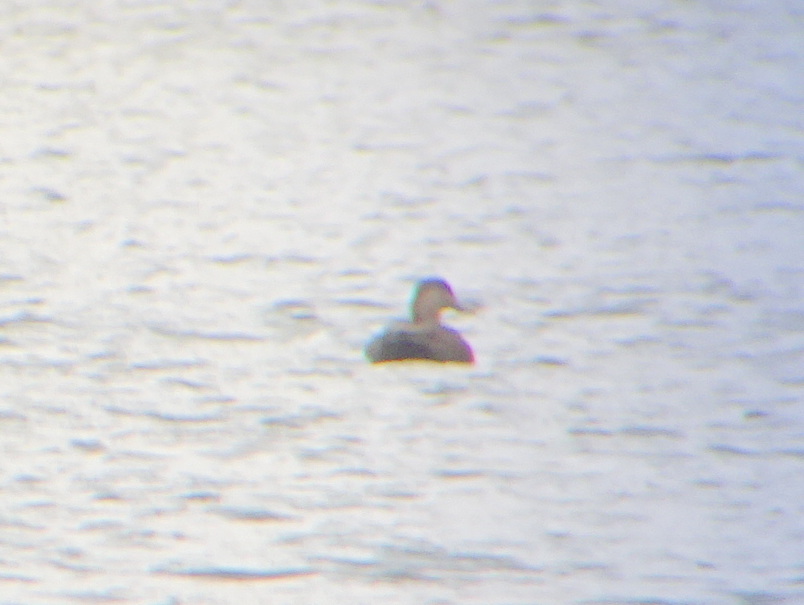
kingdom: Animalia
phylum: Chordata
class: Aves
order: Anseriformes
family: Anatidae
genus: Anas
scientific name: Anas rubripes
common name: American black duck
